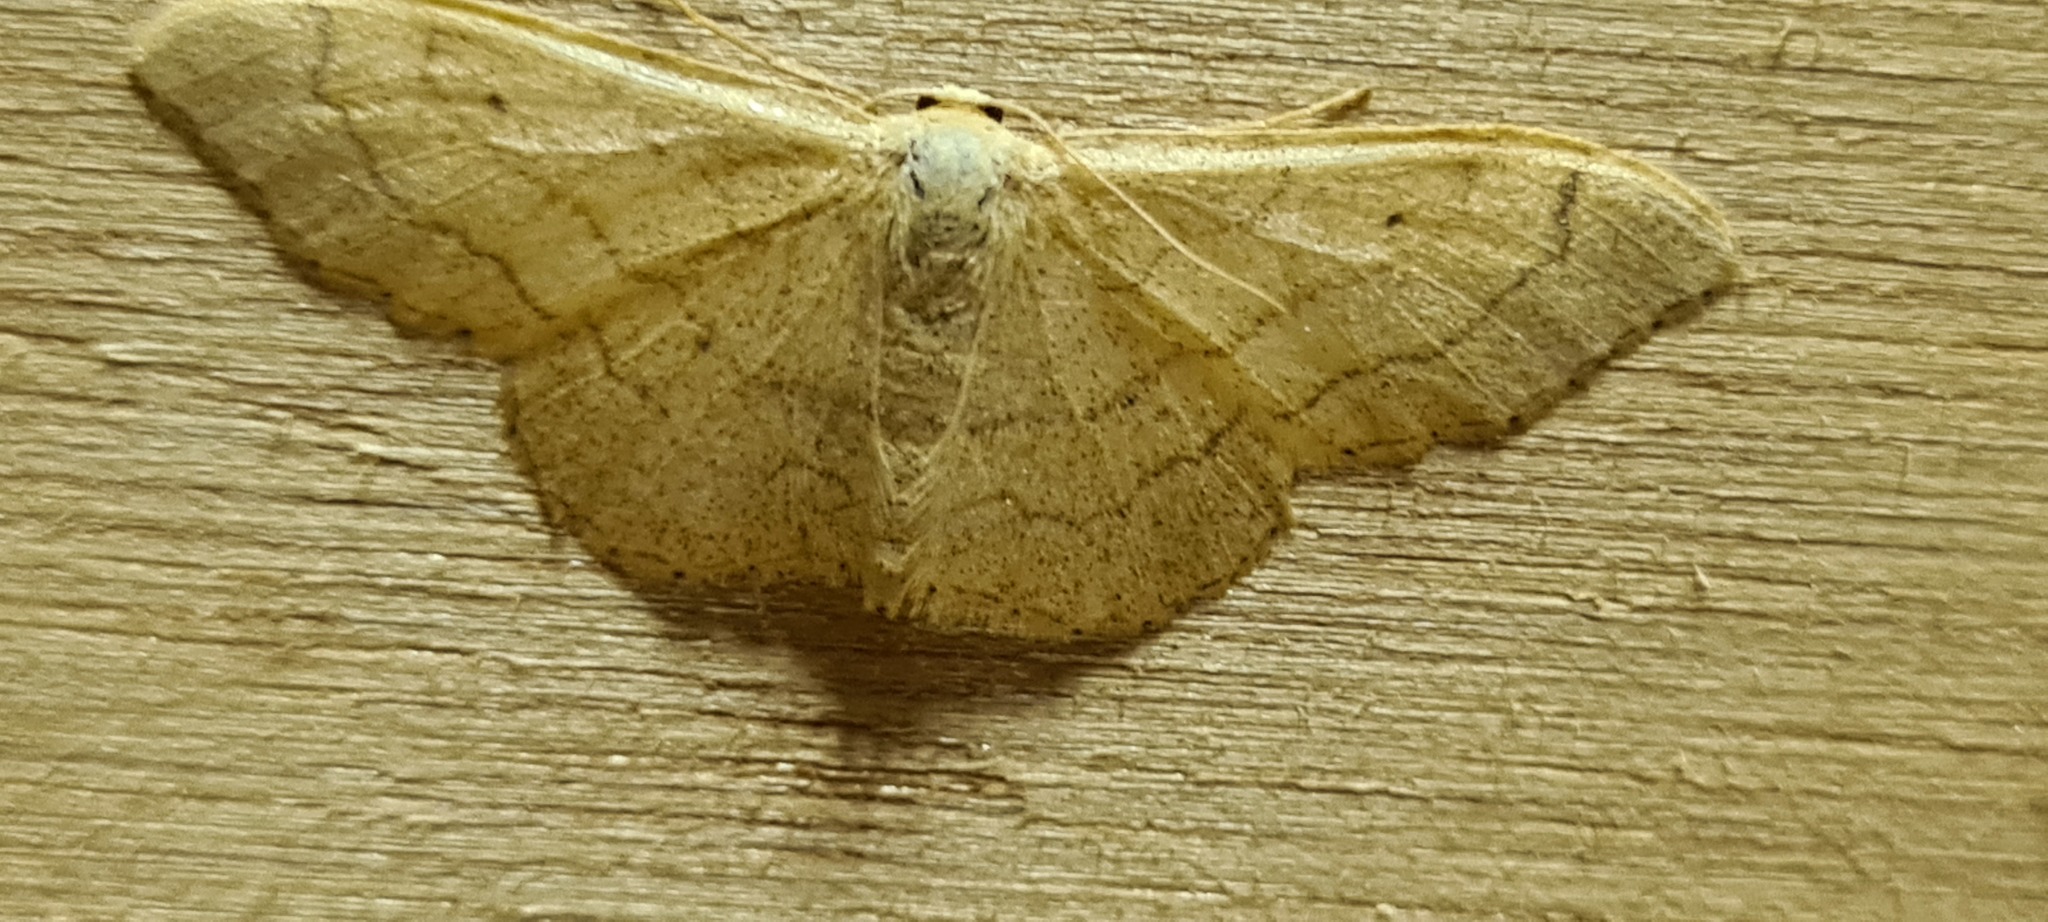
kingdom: Animalia
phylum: Arthropoda
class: Insecta
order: Lepidoptera
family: Geometridae
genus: Idaea
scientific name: Idaea aversata
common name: Riband wave
